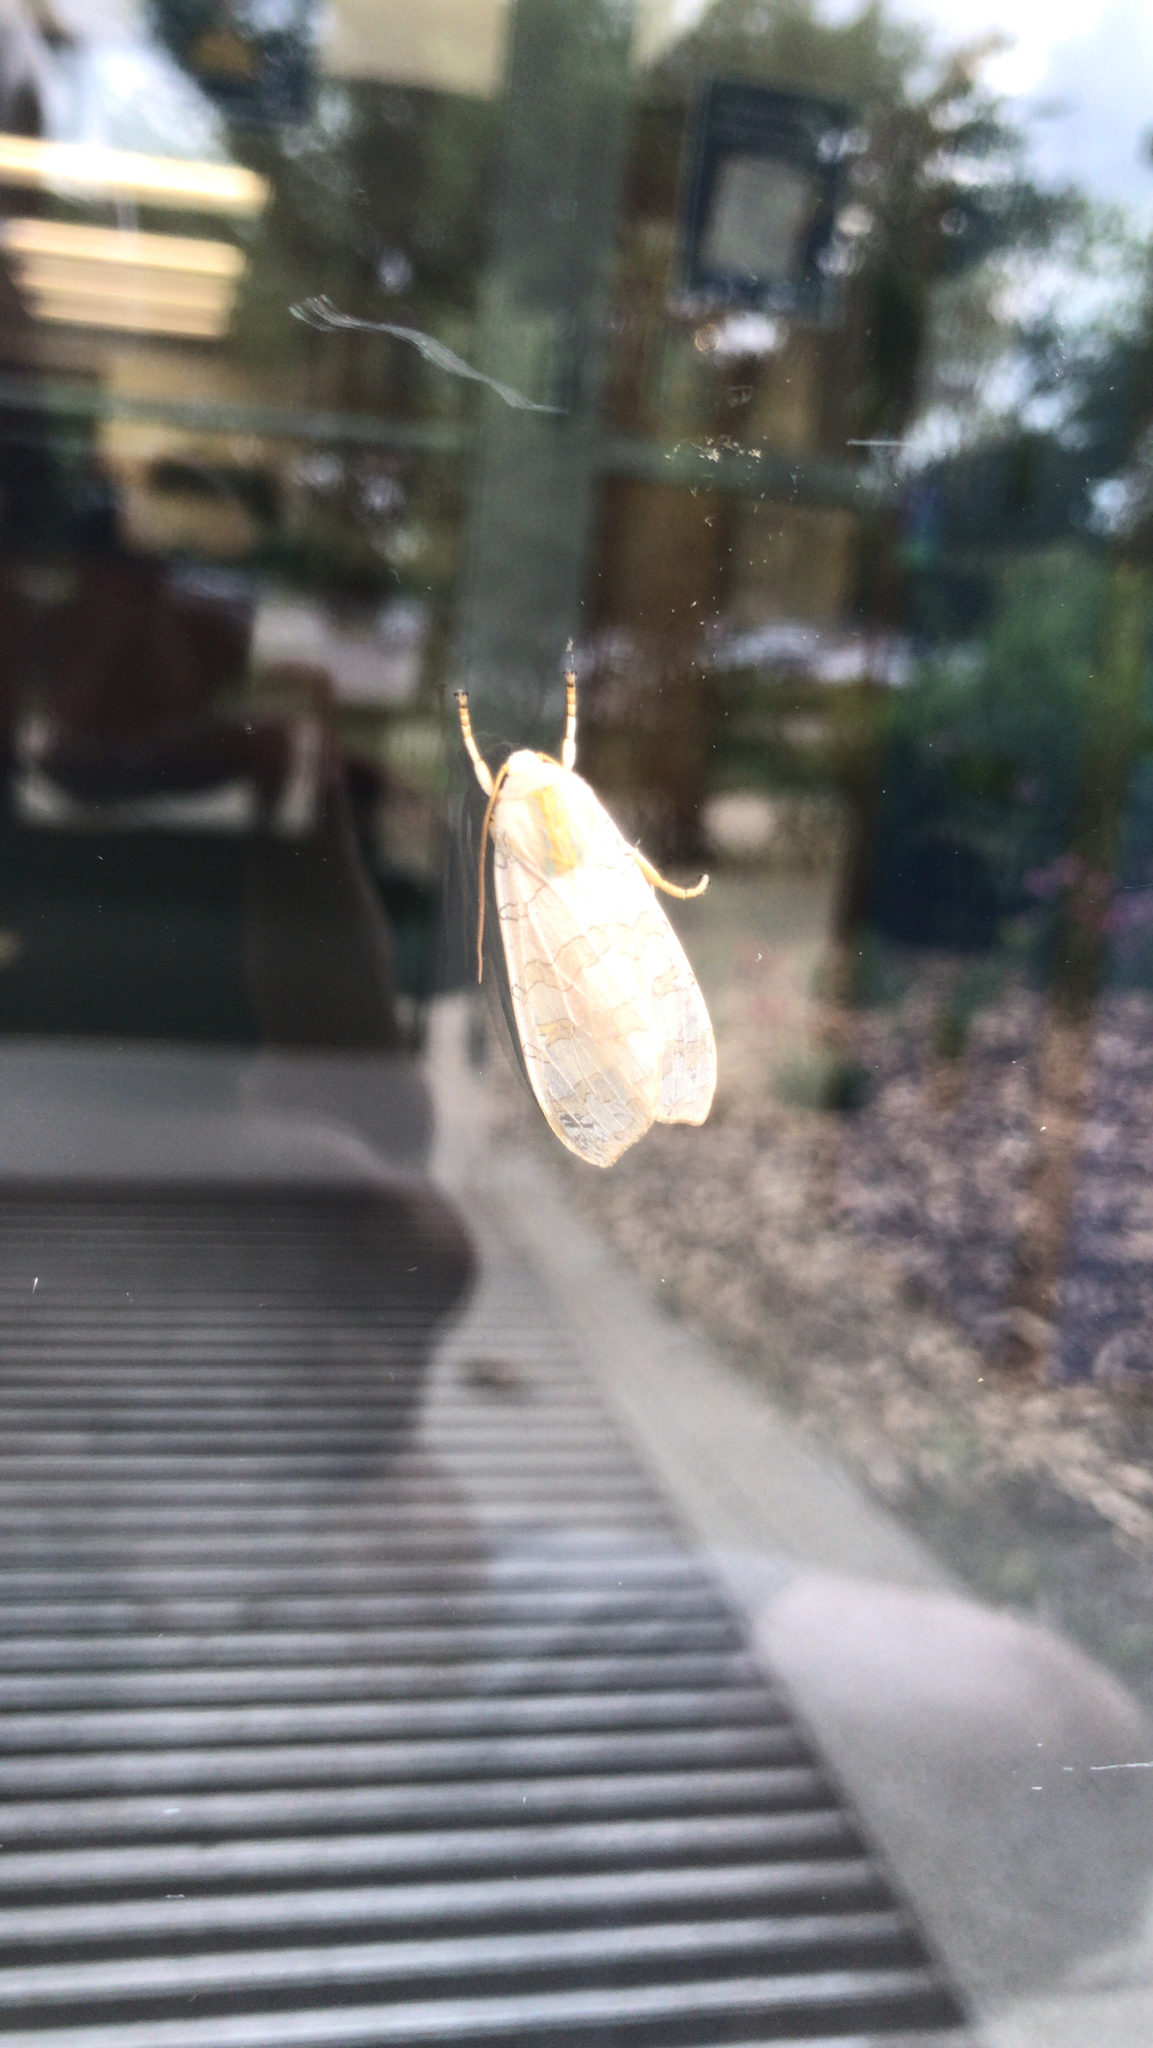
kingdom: Animalia
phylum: Arthropoda
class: Insecta
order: Lepidoptera
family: Erebidae
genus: Halysidota
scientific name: Halysidota
